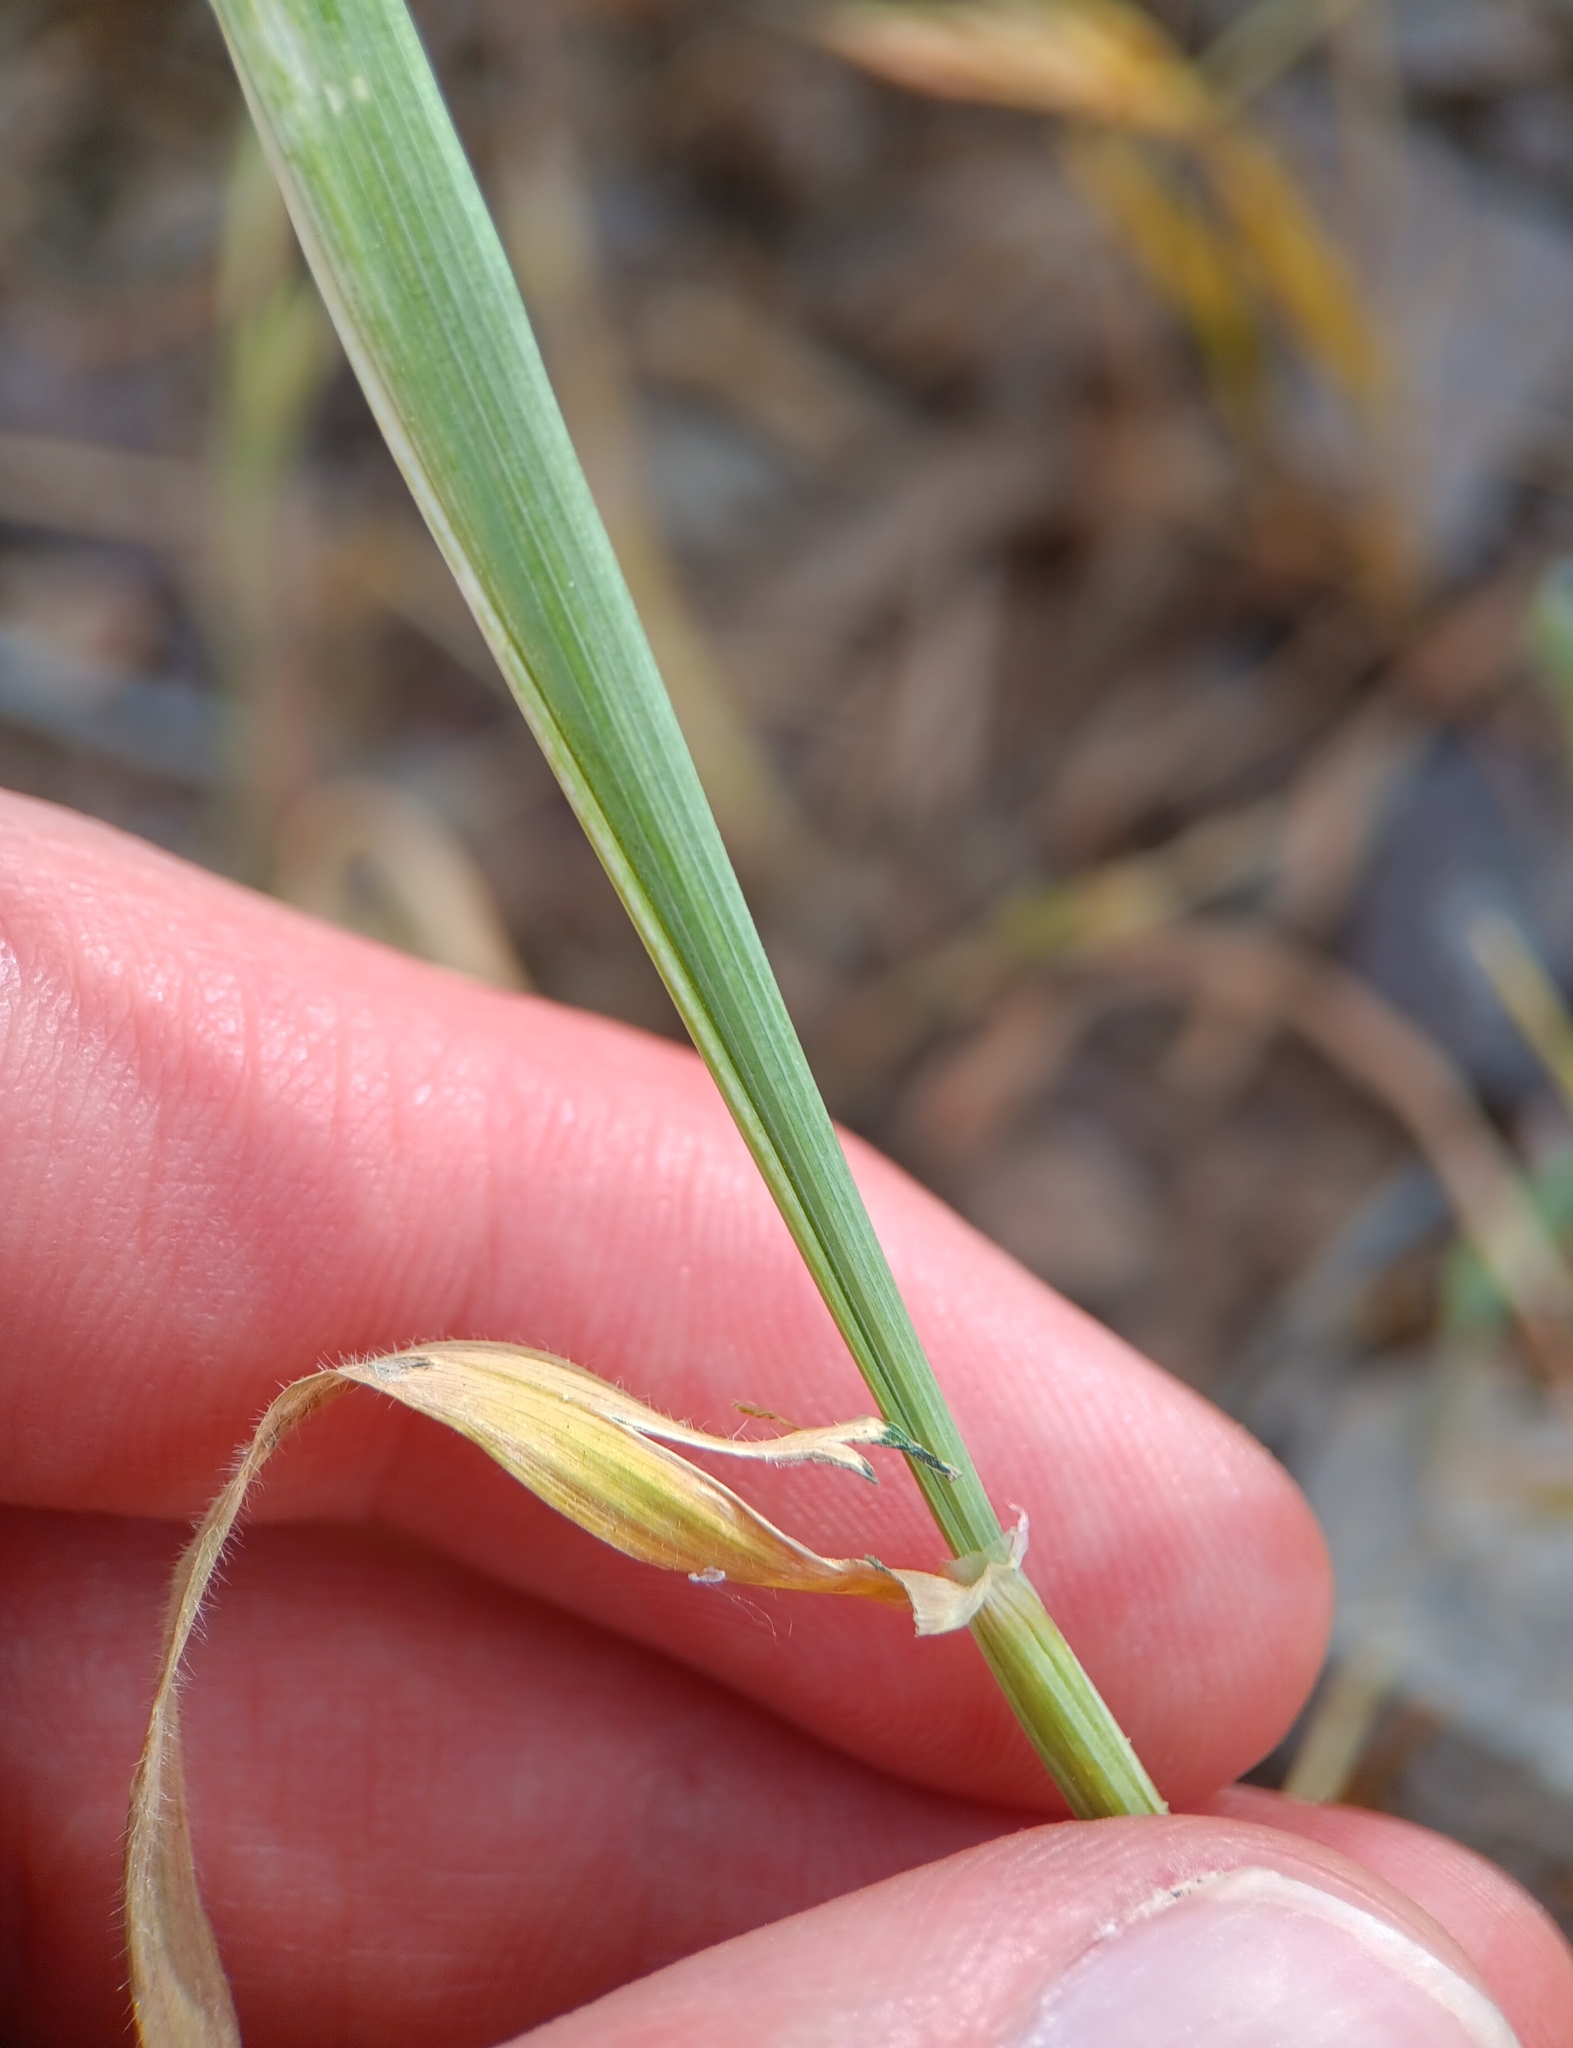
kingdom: Plantae
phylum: Tracheophyta
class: Liliopsida
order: Poales
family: Poaceae
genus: Hordeum
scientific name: Hordeum murinum
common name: Wall barley
